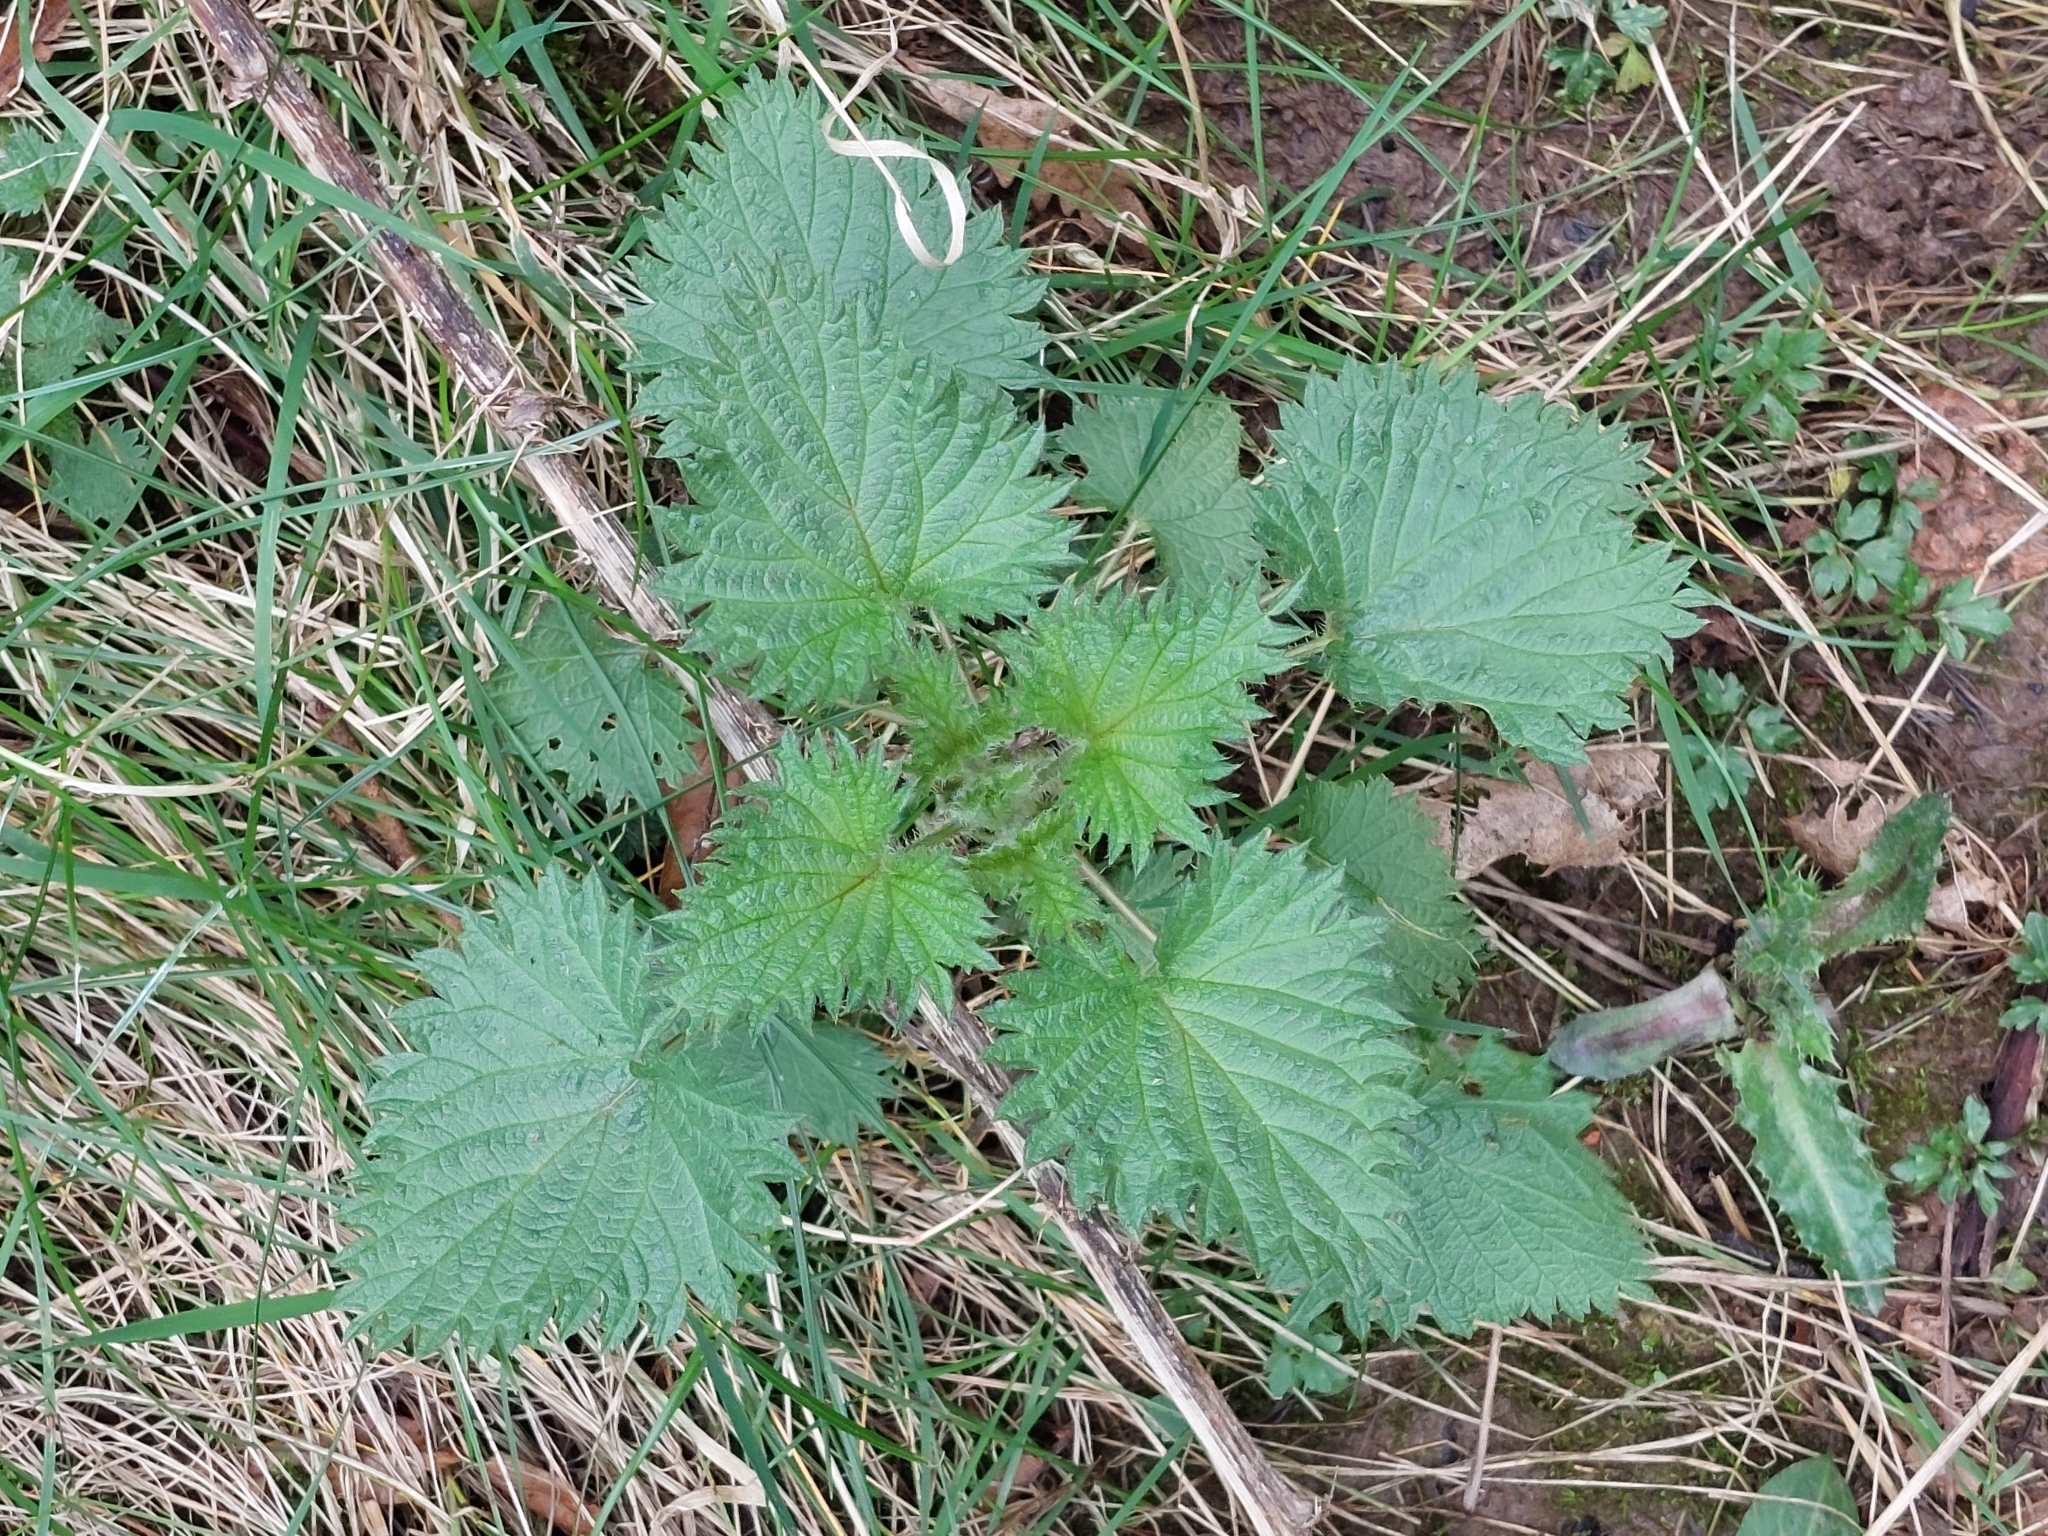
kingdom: Plantae
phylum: Tracheophyta
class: Magnoliopsida
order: Rosales
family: Urticaceae
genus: Urtica
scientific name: Urtica dioica
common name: Common nettle
